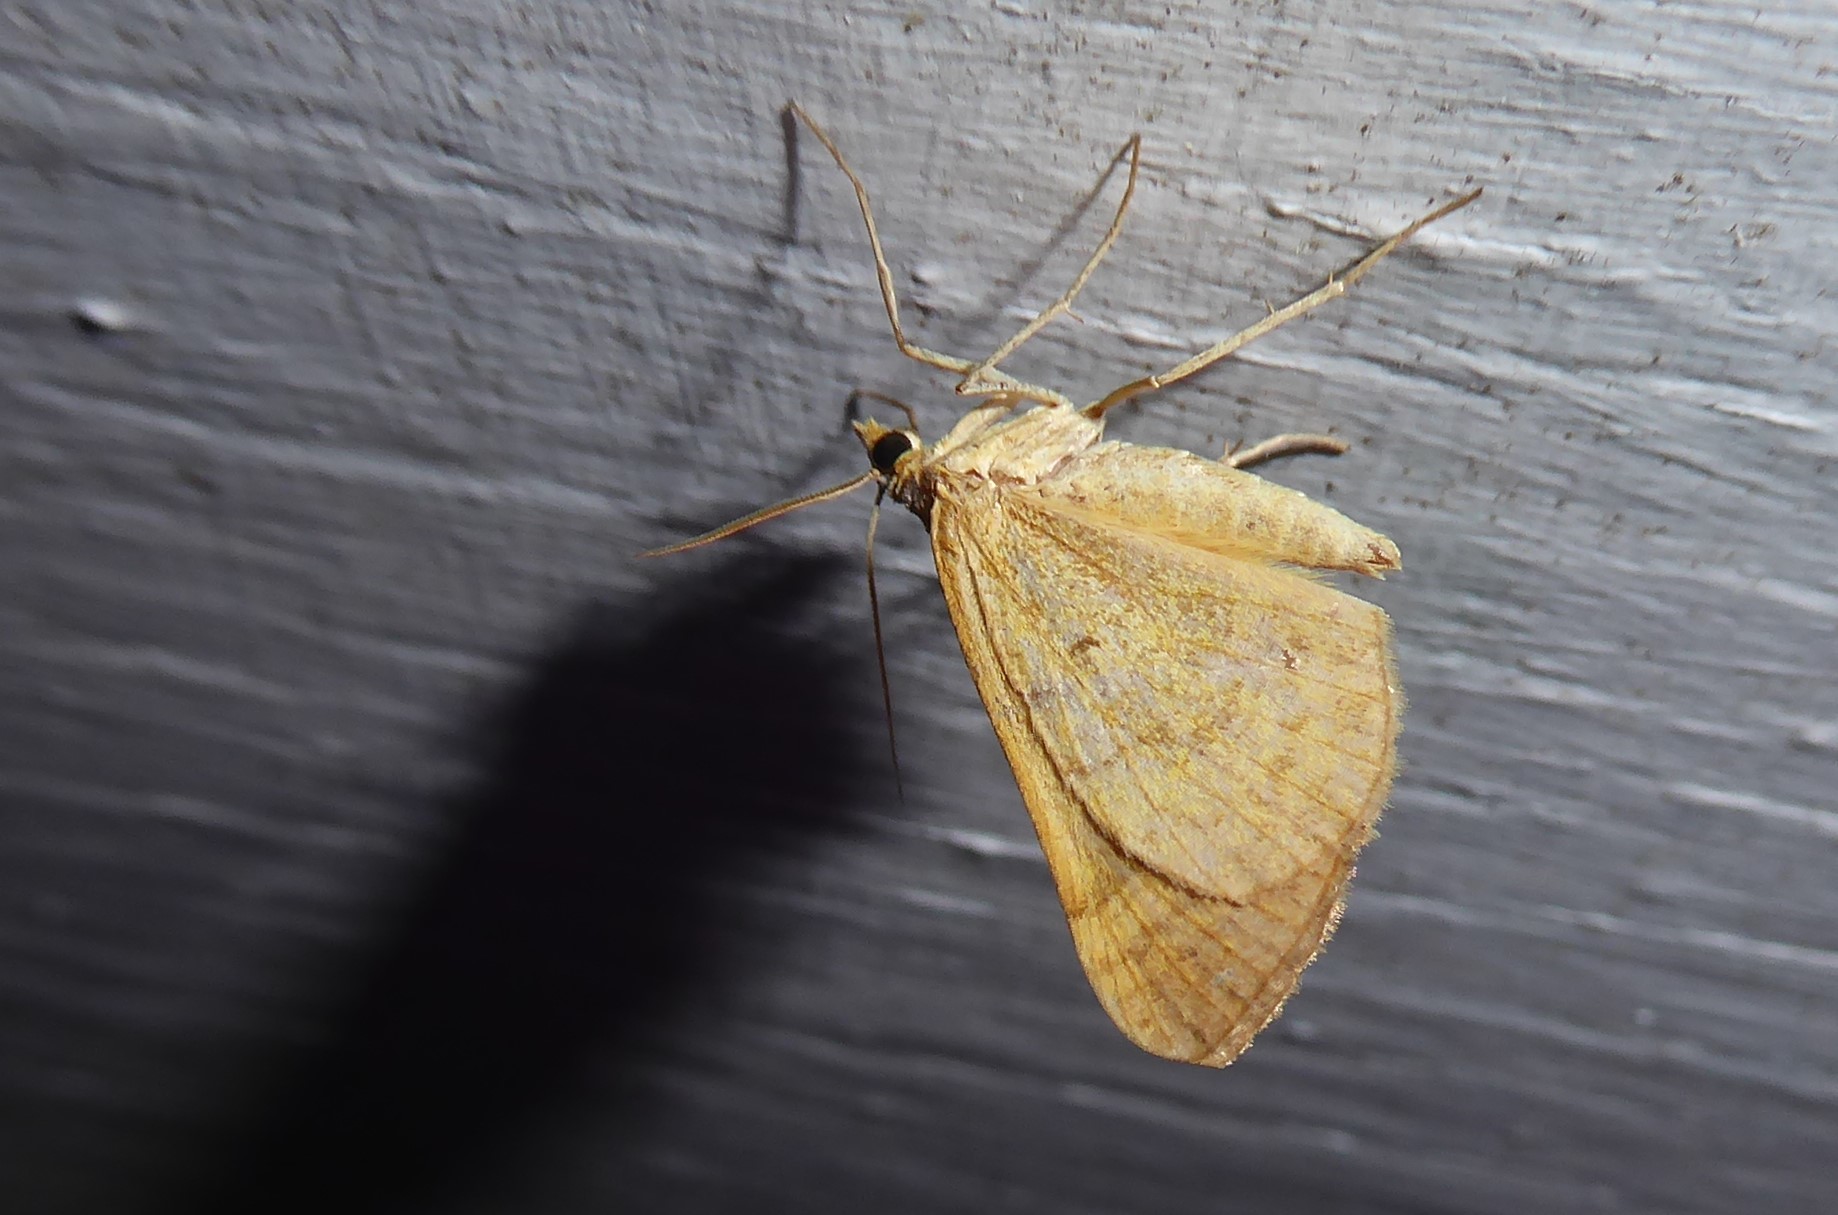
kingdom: Animalia
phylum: Arthropoda
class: Insecta
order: Lepidoptera
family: Geometridae
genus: Anachloris
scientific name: Anachloris subochraria
